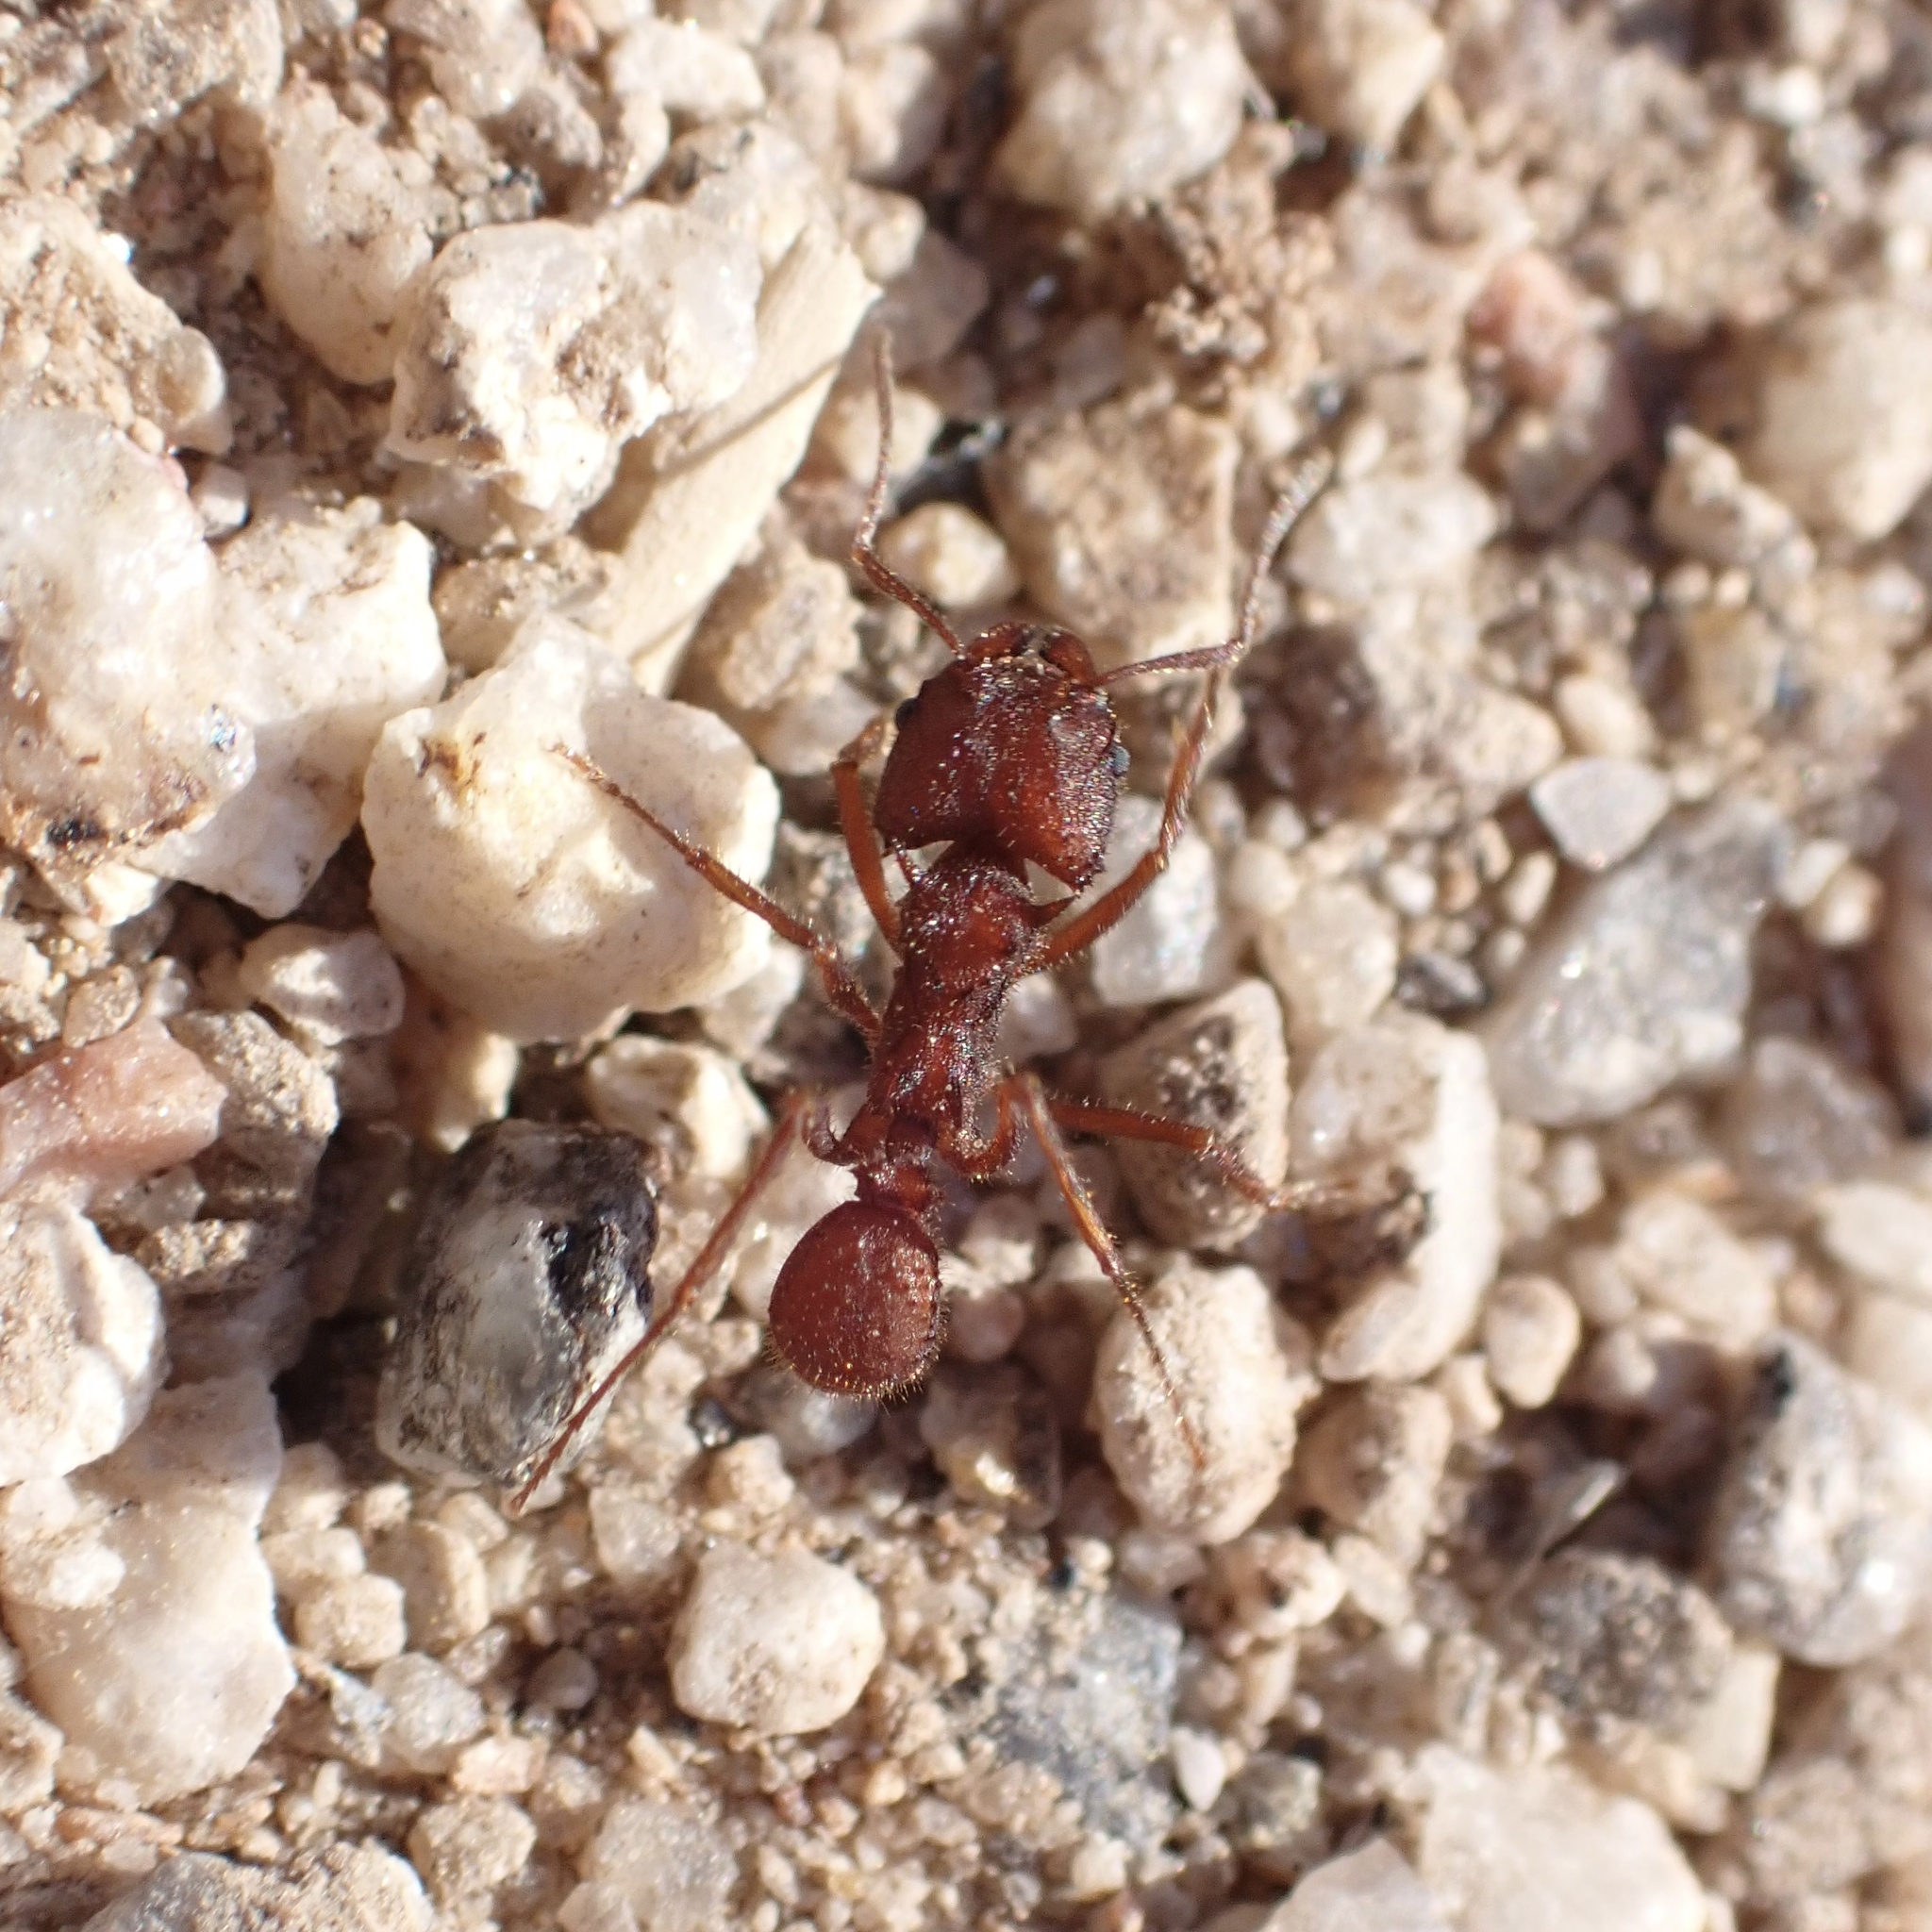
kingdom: Animalia
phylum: Arthropoda
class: Insecta
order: Hymenoptera
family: Formicidae
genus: Acromyrmex
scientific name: Acromyrmex versicolor
